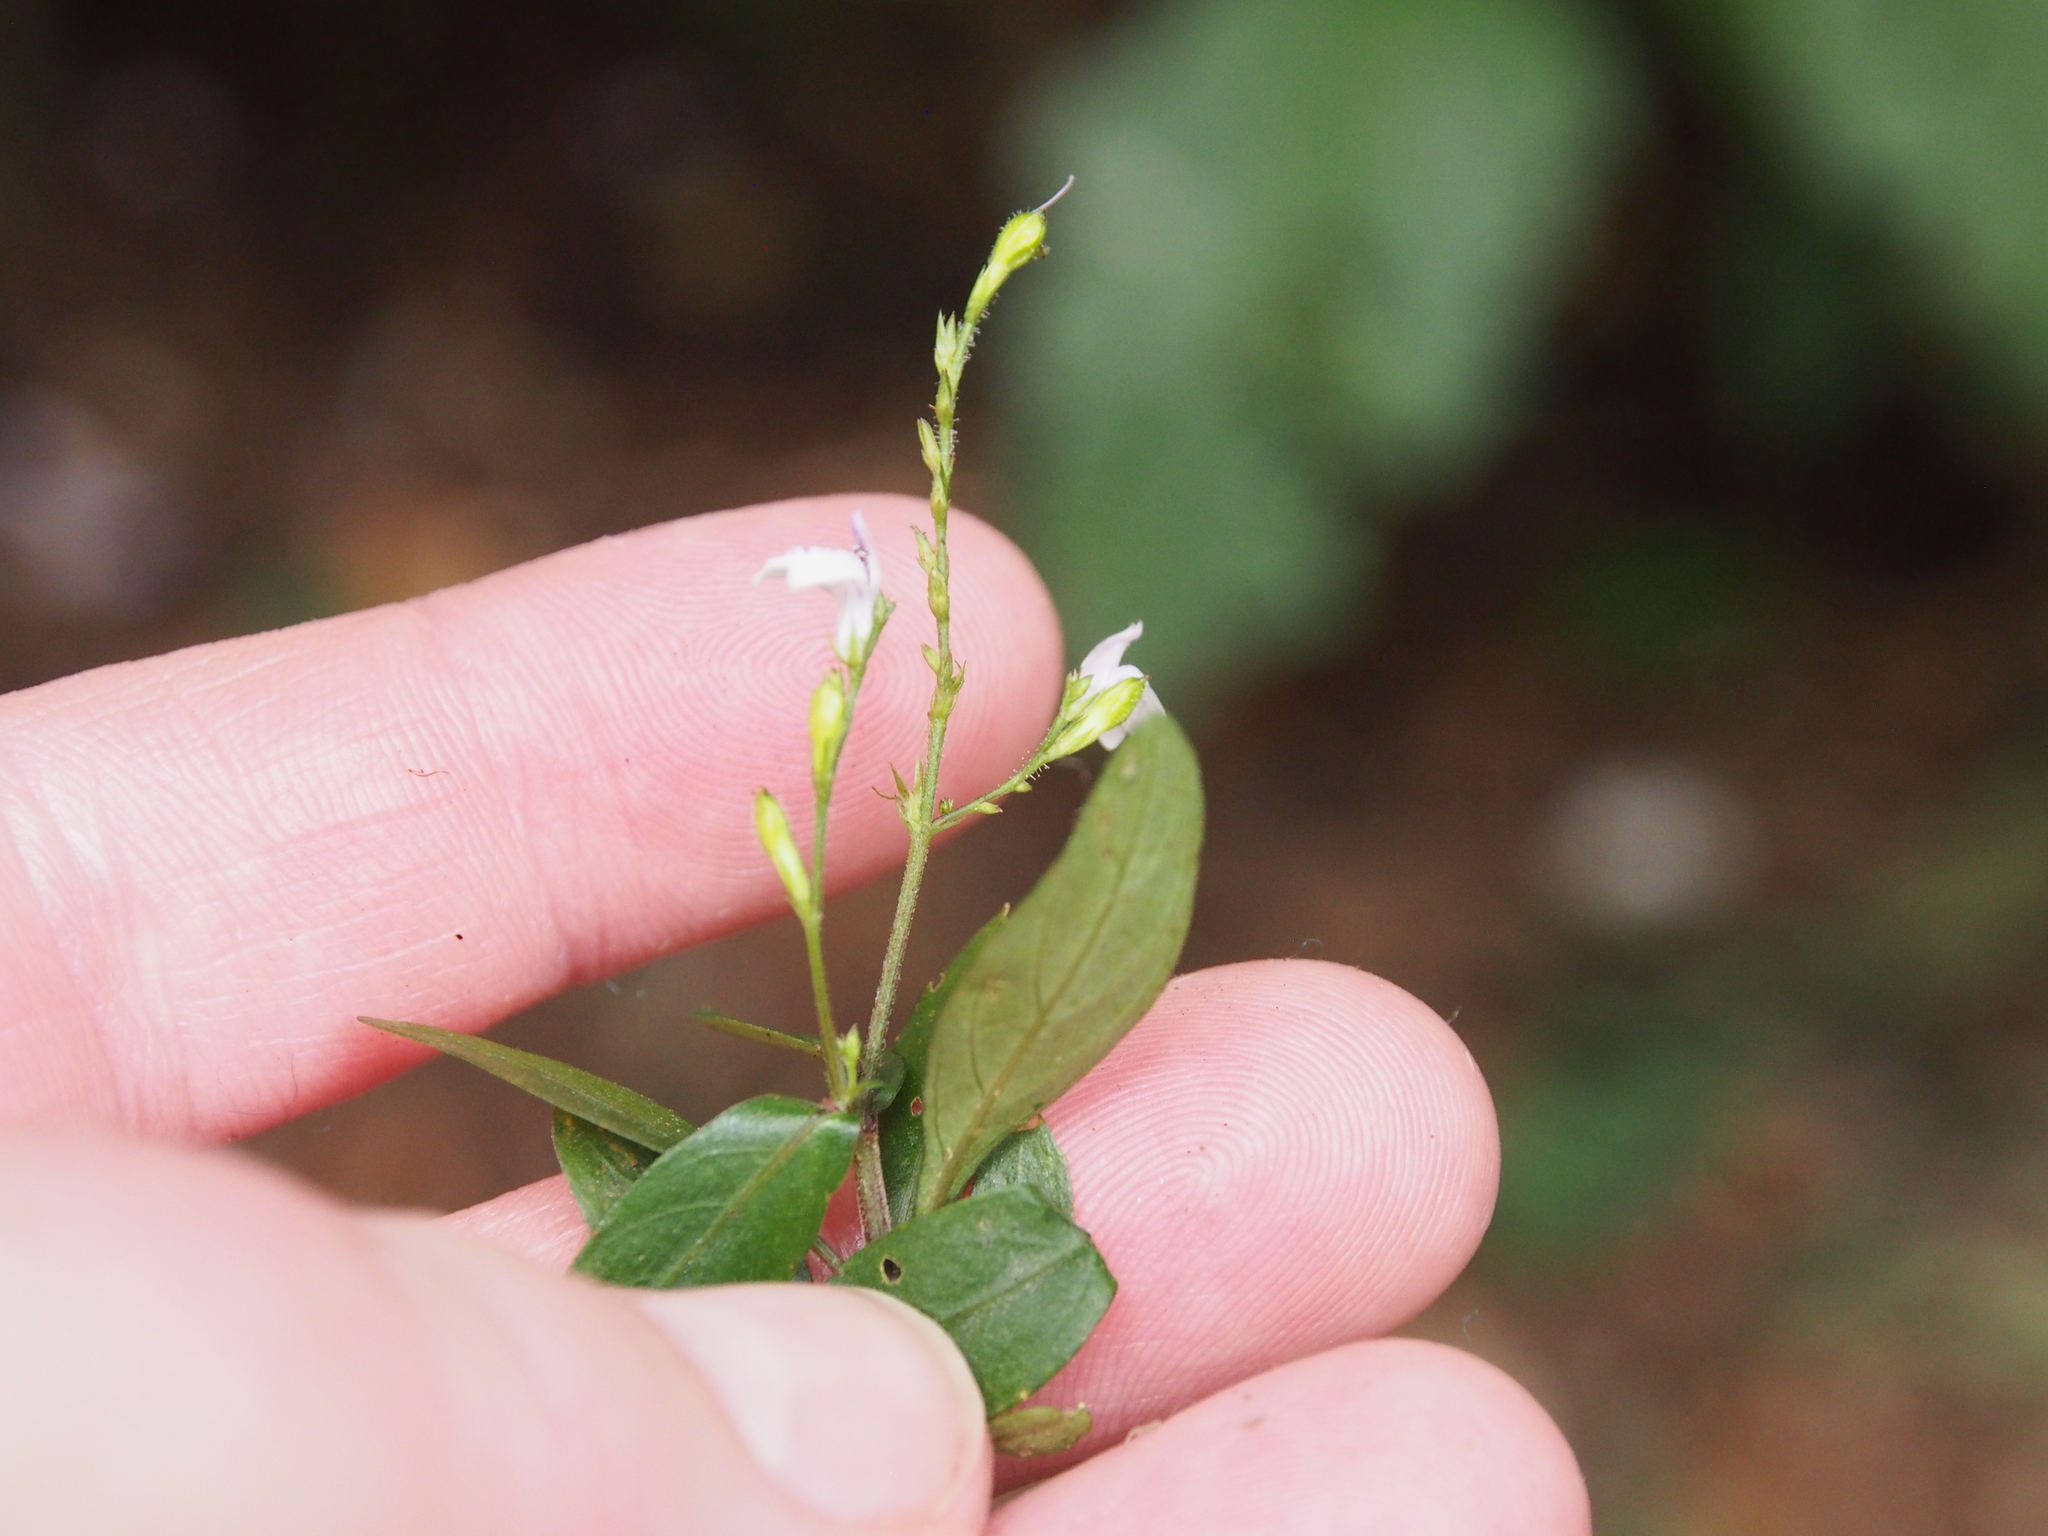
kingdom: Plantae
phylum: Tracheophyta
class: Magnoliopsida
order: Lamiales
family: Acanthaceae
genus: Justicia
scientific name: Justicia comata
